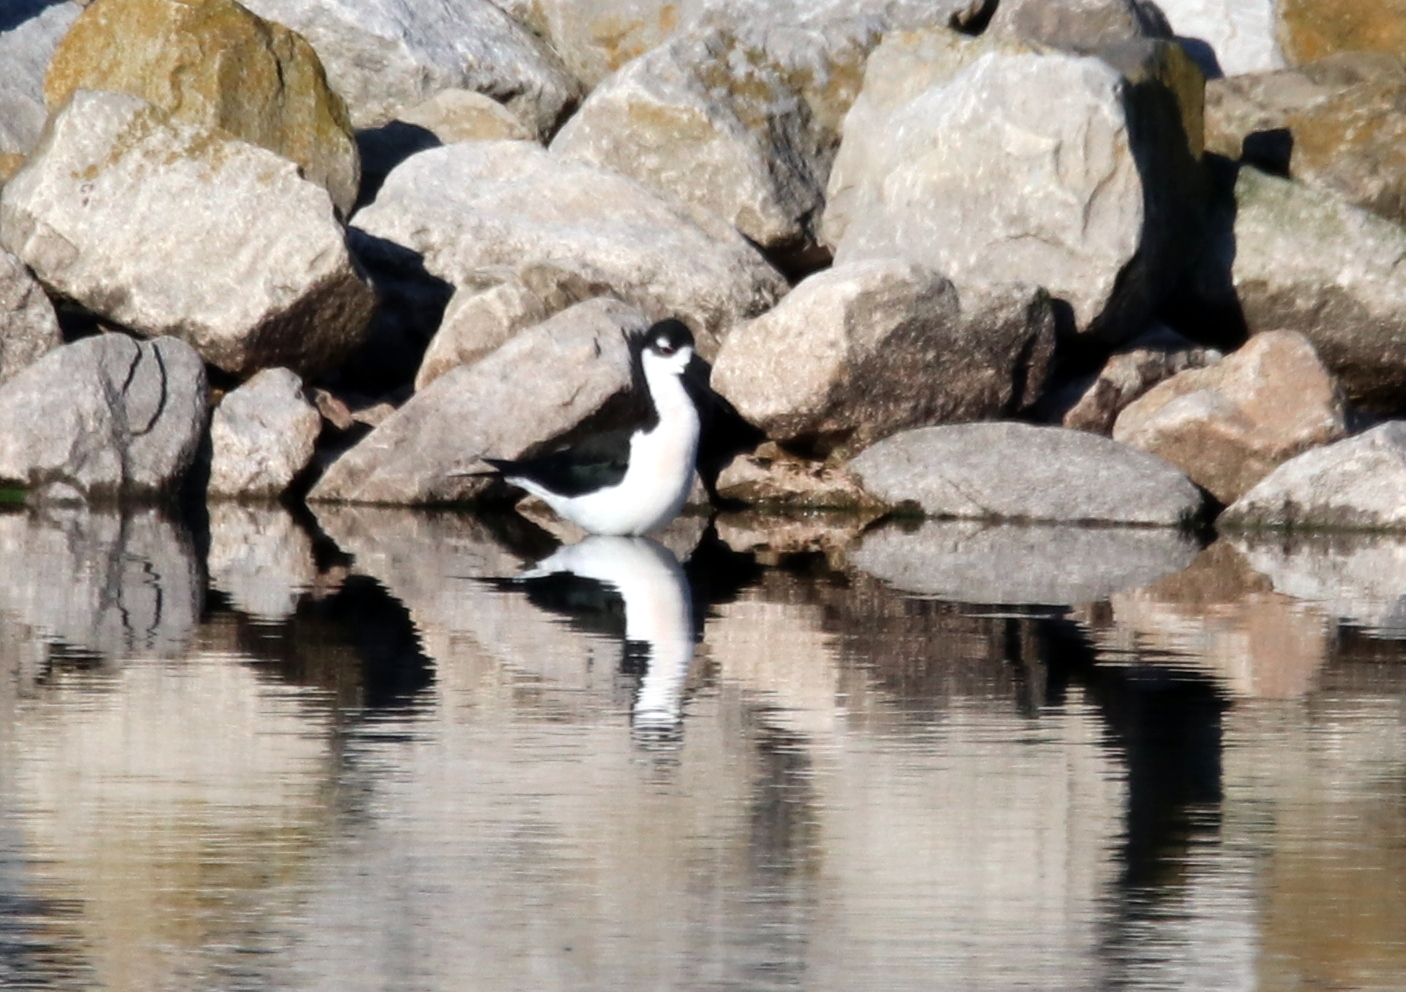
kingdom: Animalia
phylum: Chordata
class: Aves
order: Charadriiformes
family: Recurvirostridae
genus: Himantopus
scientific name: Himantopus mexicanus
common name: Black-necked stilt
